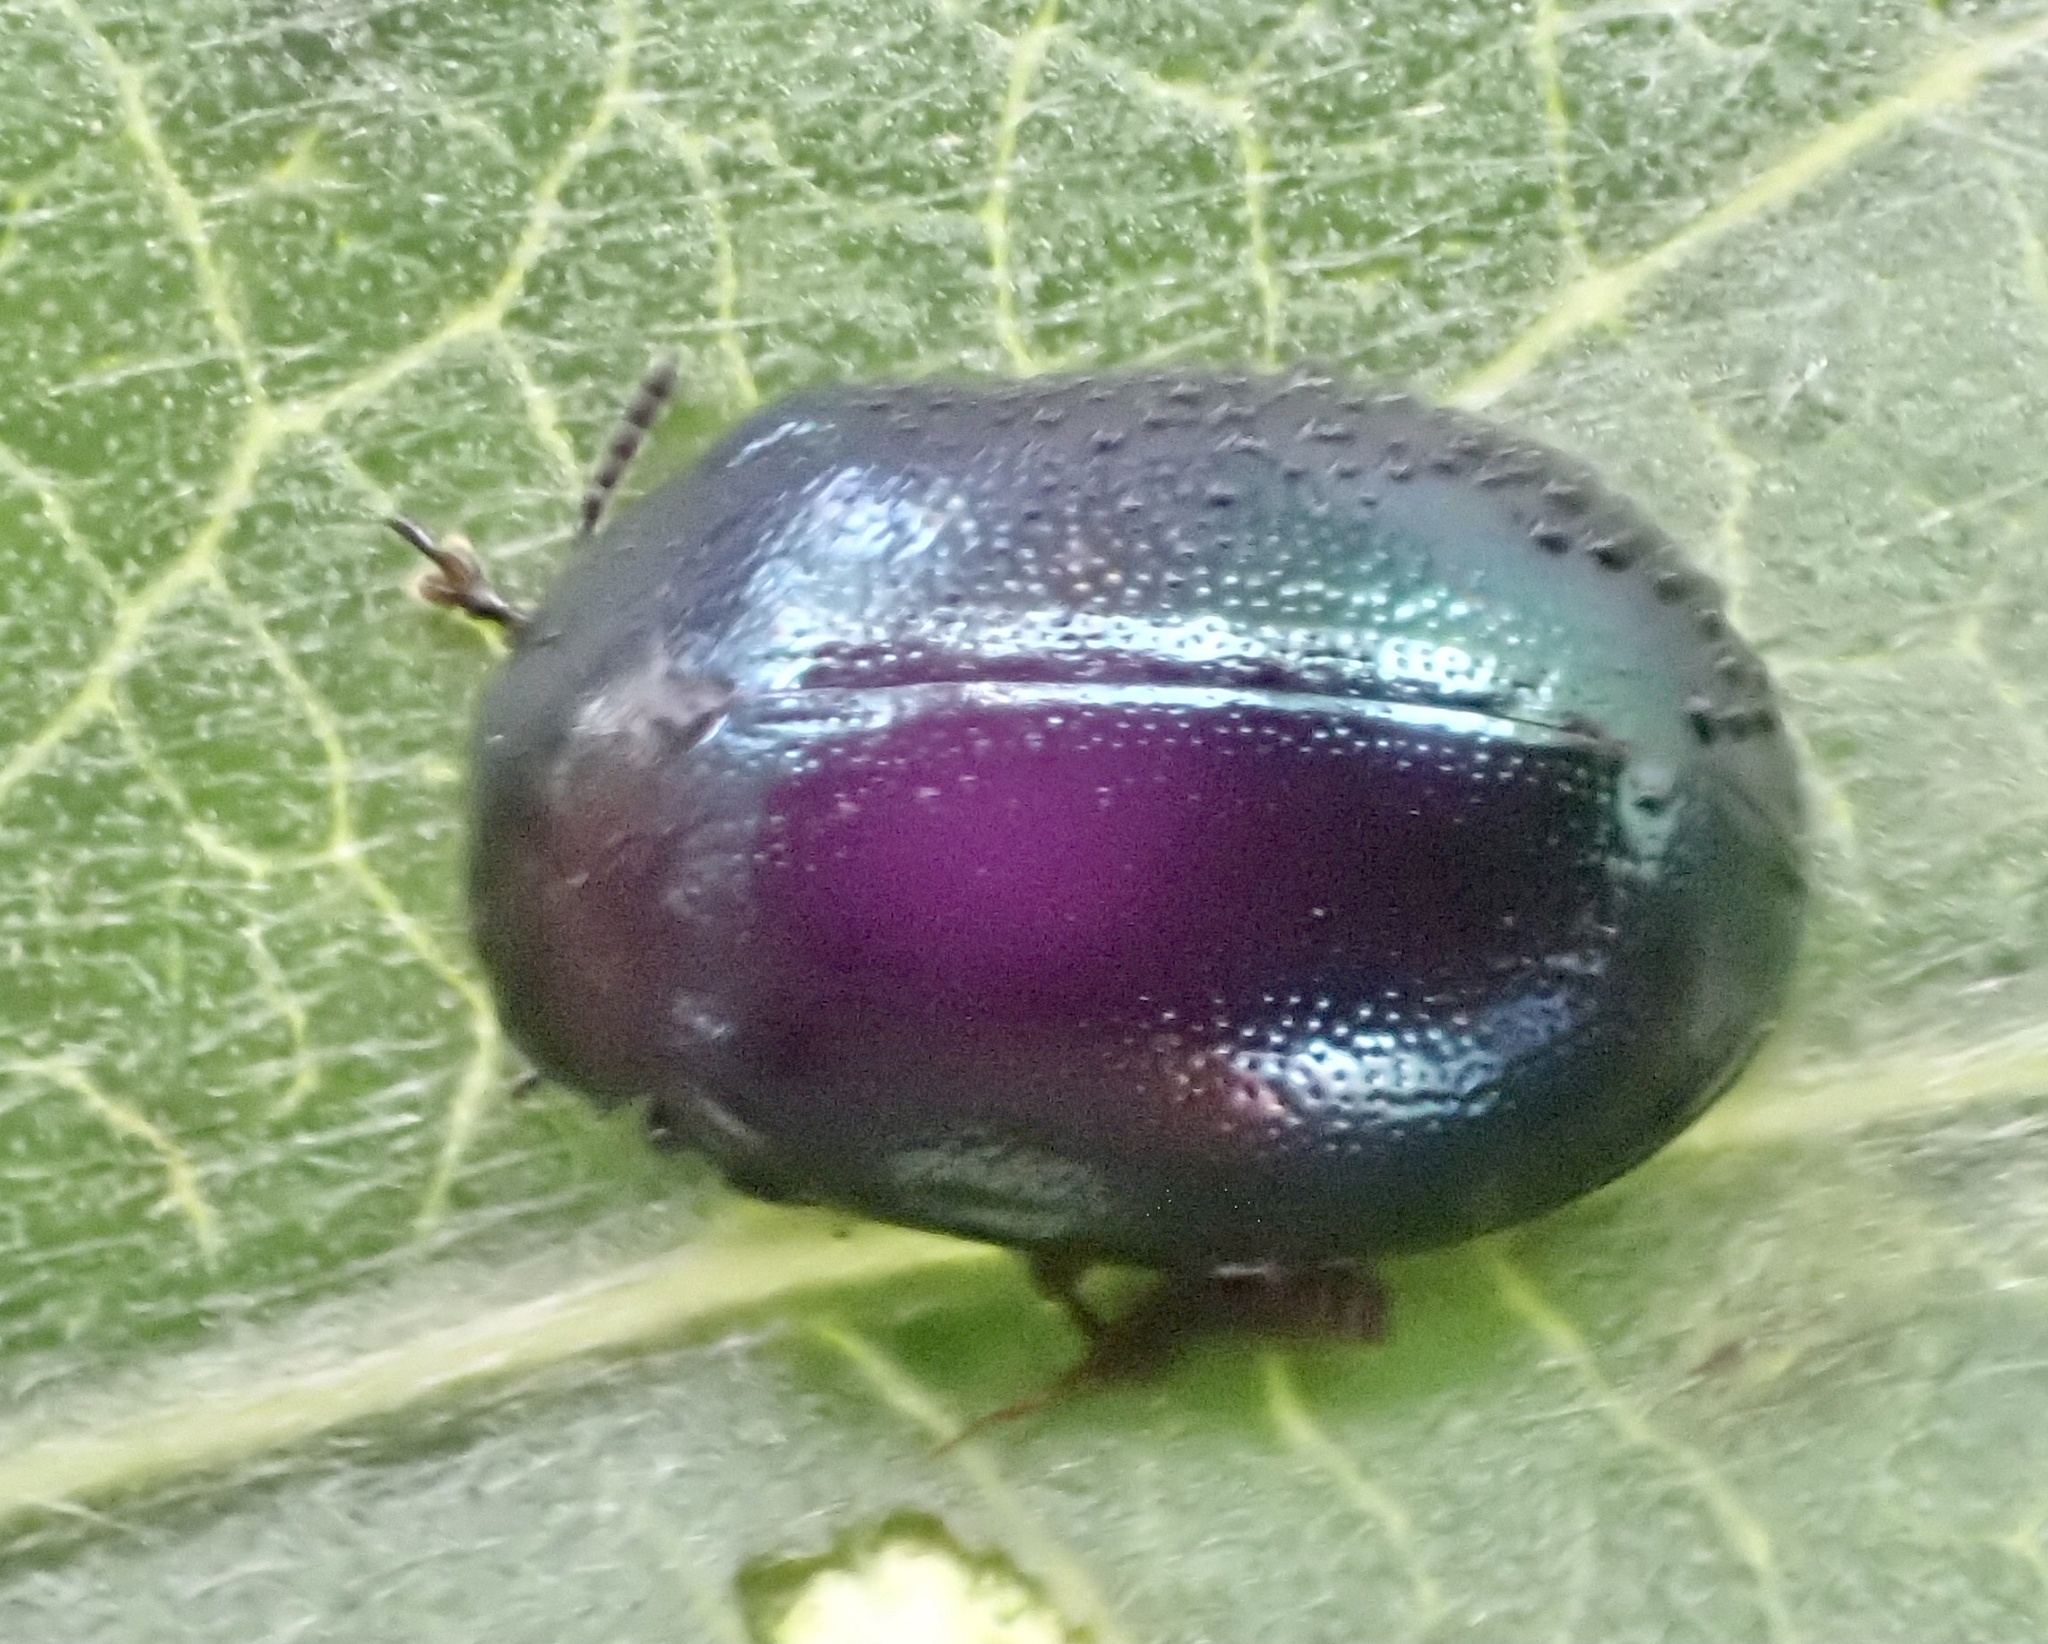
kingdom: Animalia
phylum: Arthropoda
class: Insecta
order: Coleoptera
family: Chrysomelidae
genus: Plagiodera
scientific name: Plagiodera versicolora
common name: Imported willow leaf beetle
